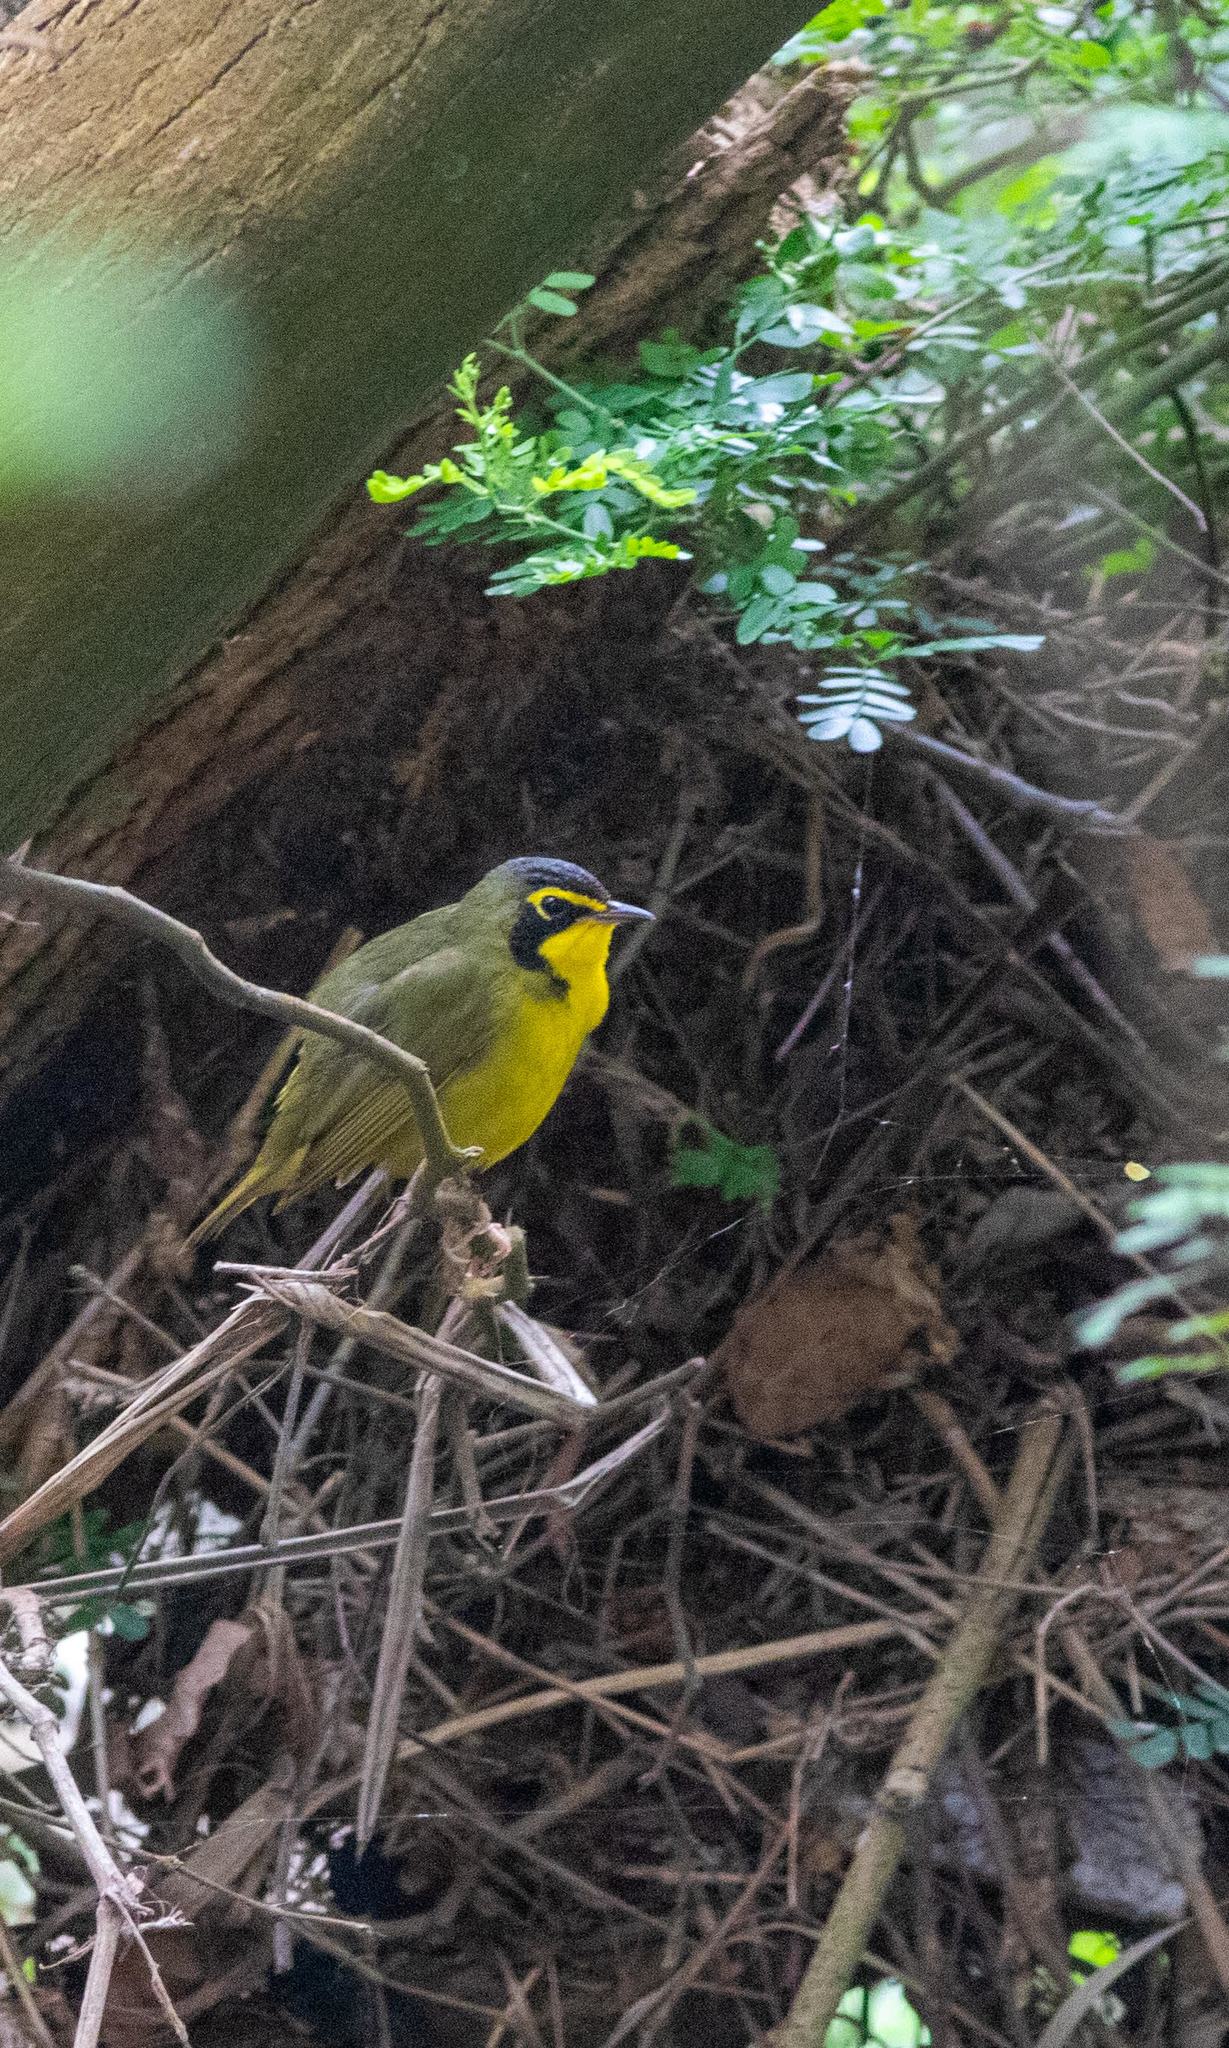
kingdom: Animalia
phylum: Chordata
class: Aves
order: Passeriformes
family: Parulidae
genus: Geothlypis
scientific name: Geothlypis formosa
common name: Kentucky warbler
